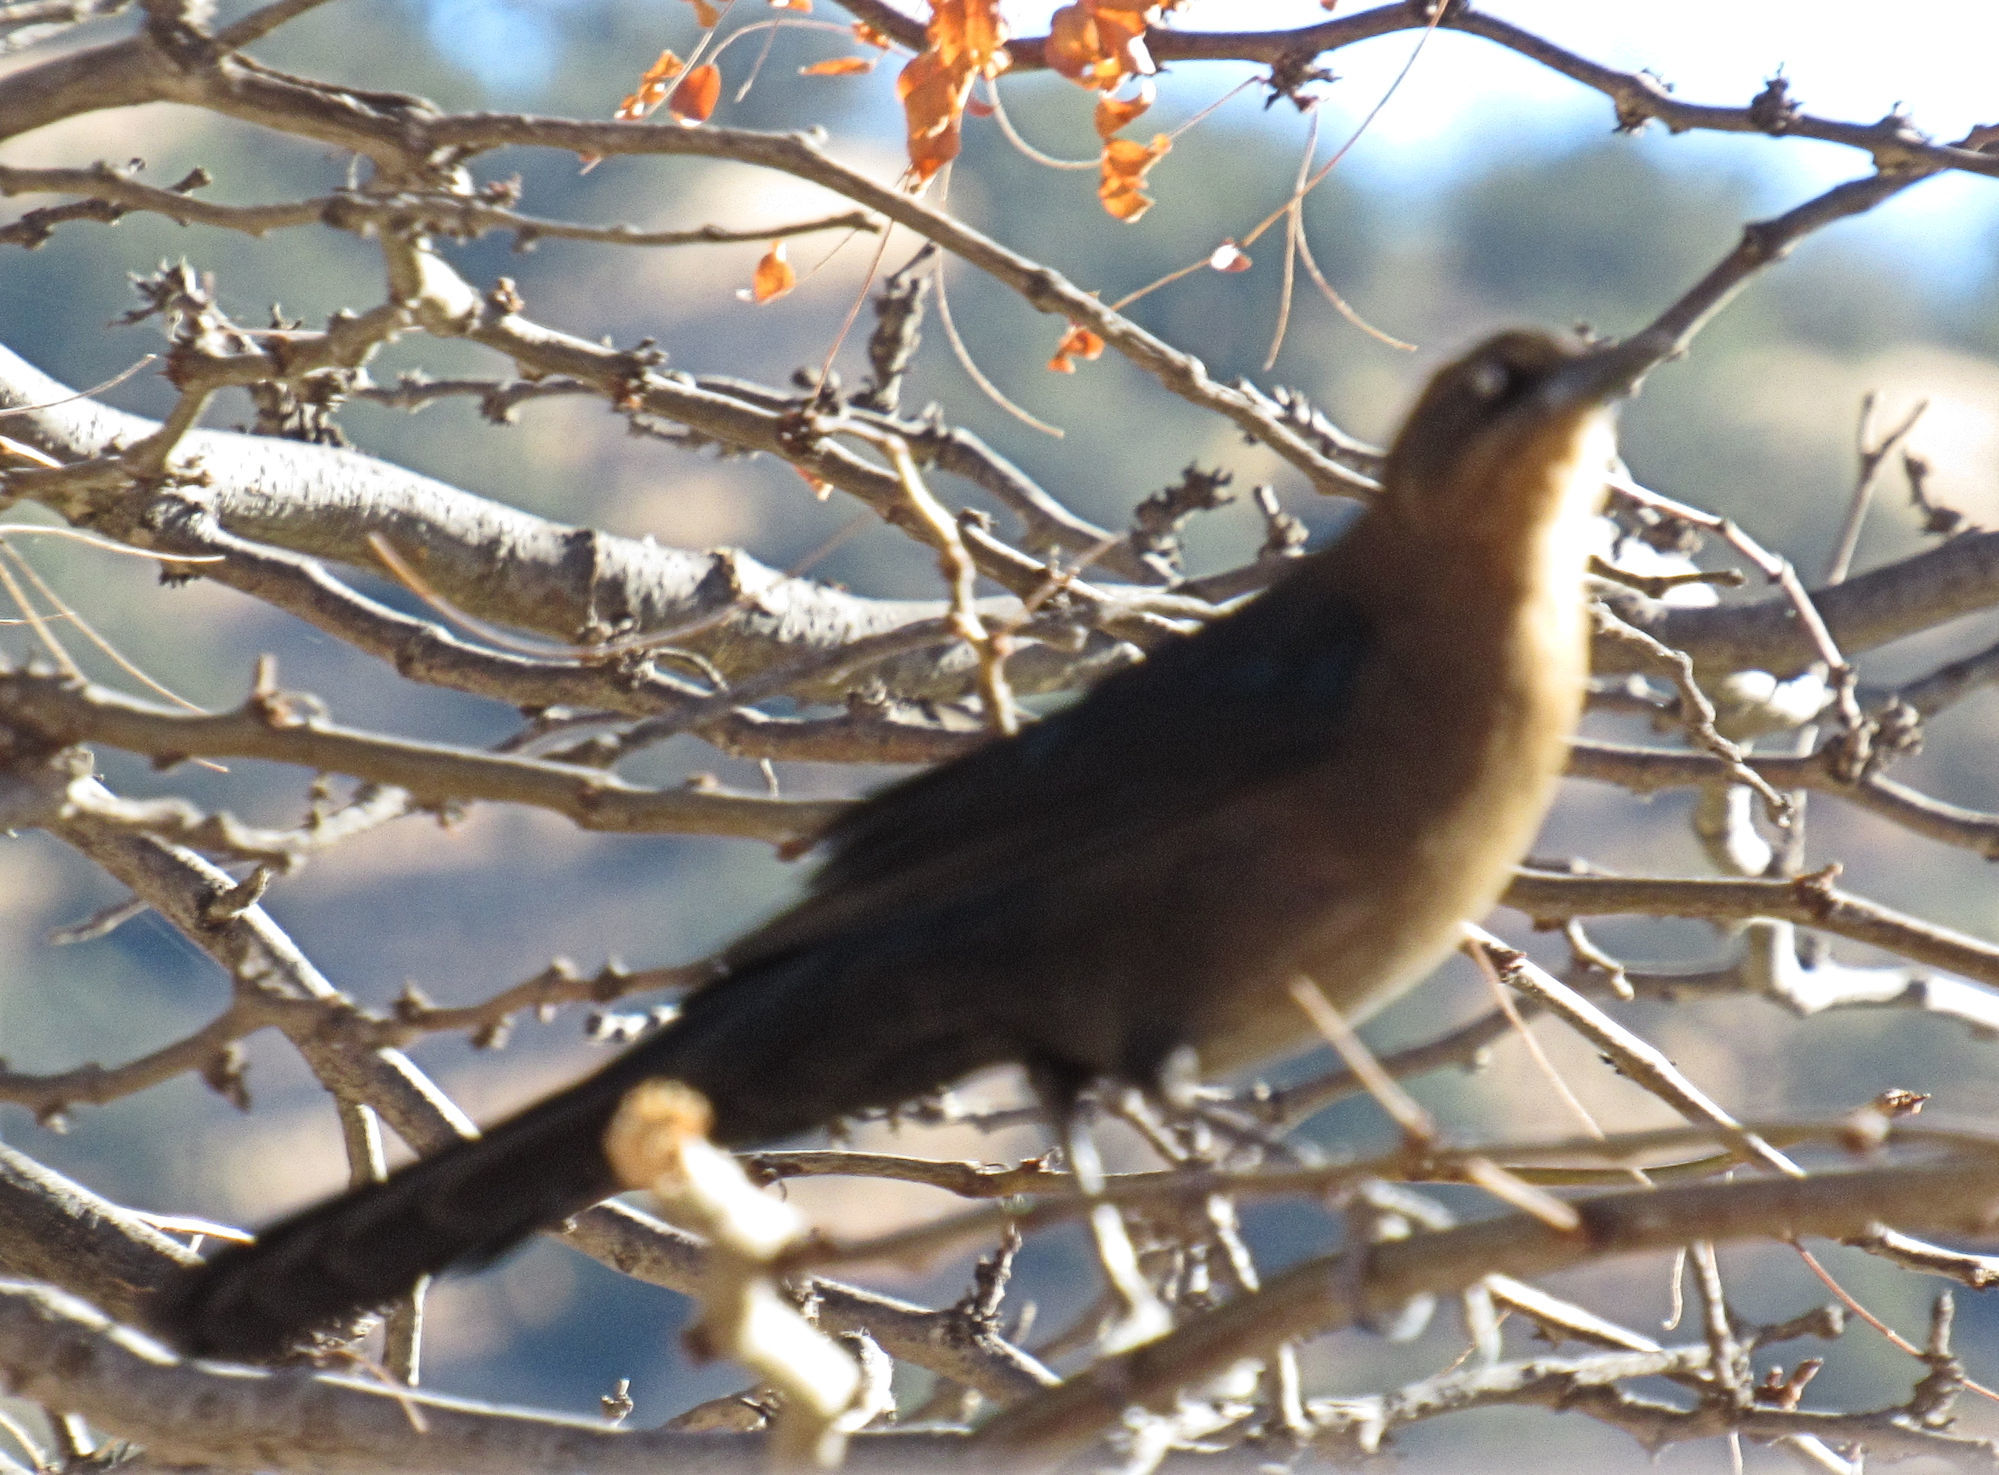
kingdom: Animalia
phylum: Chordata
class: Aves
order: Passeriformes
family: Icteridae
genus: Quiscalus
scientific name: Quiscalus mexicanus
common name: Great-tailed grackle
